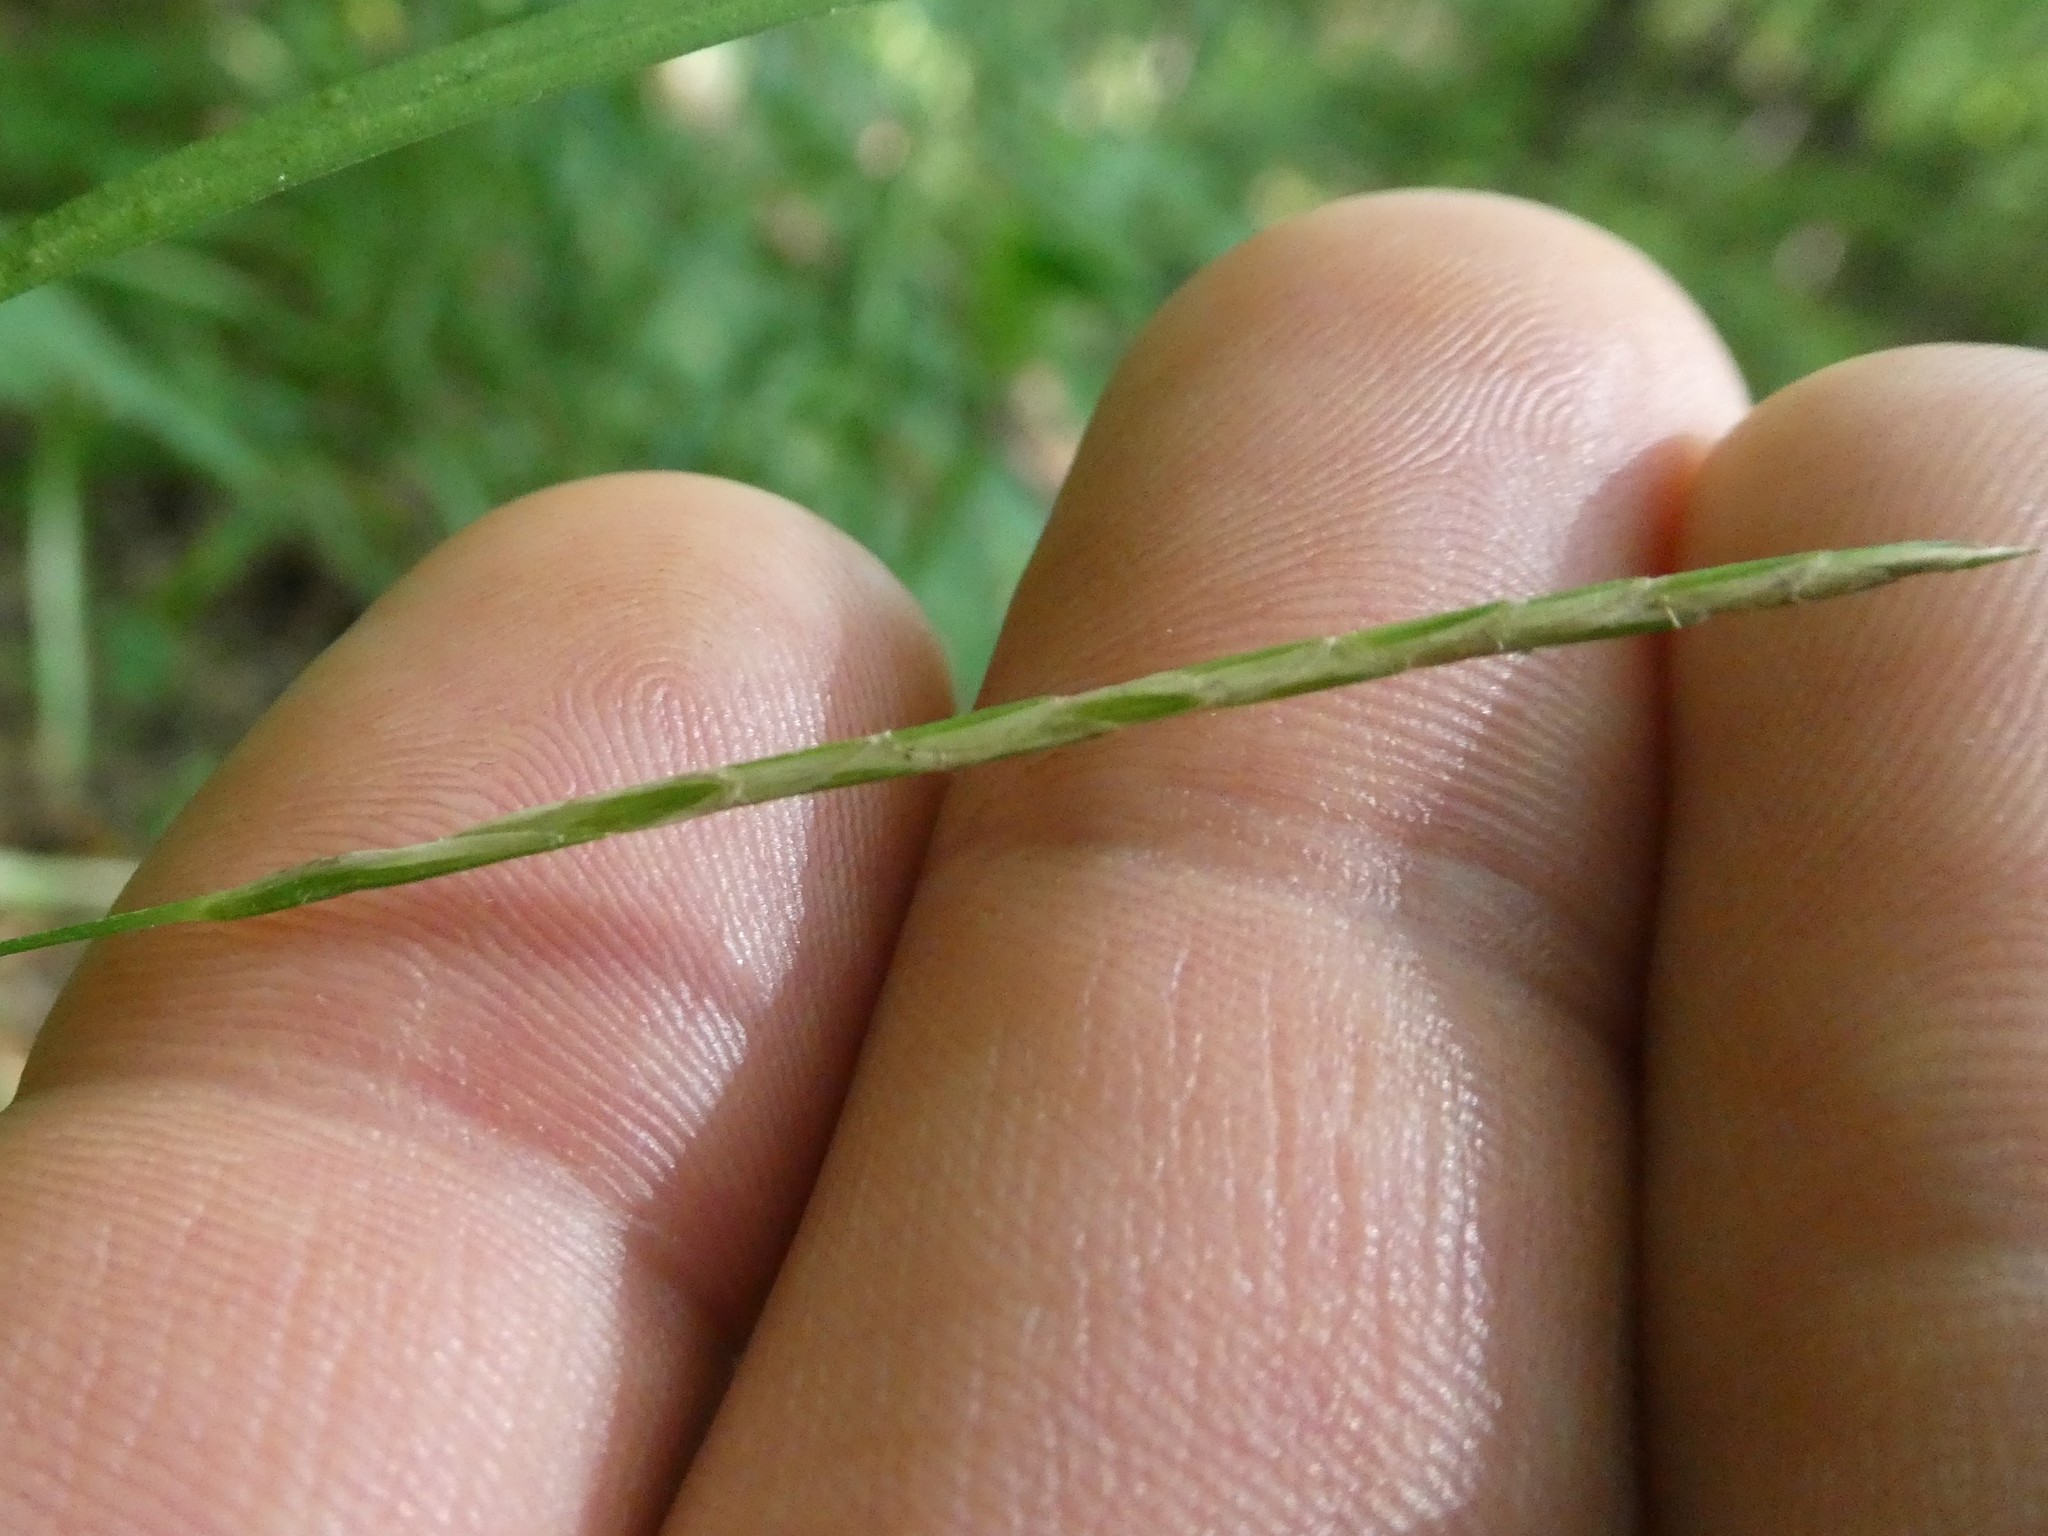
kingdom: Plantae
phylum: Tracheophyta
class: Liliopsida
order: Poales
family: Cyperaceae
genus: Carex
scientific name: Carex intumescens
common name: Greater bladder sedge
